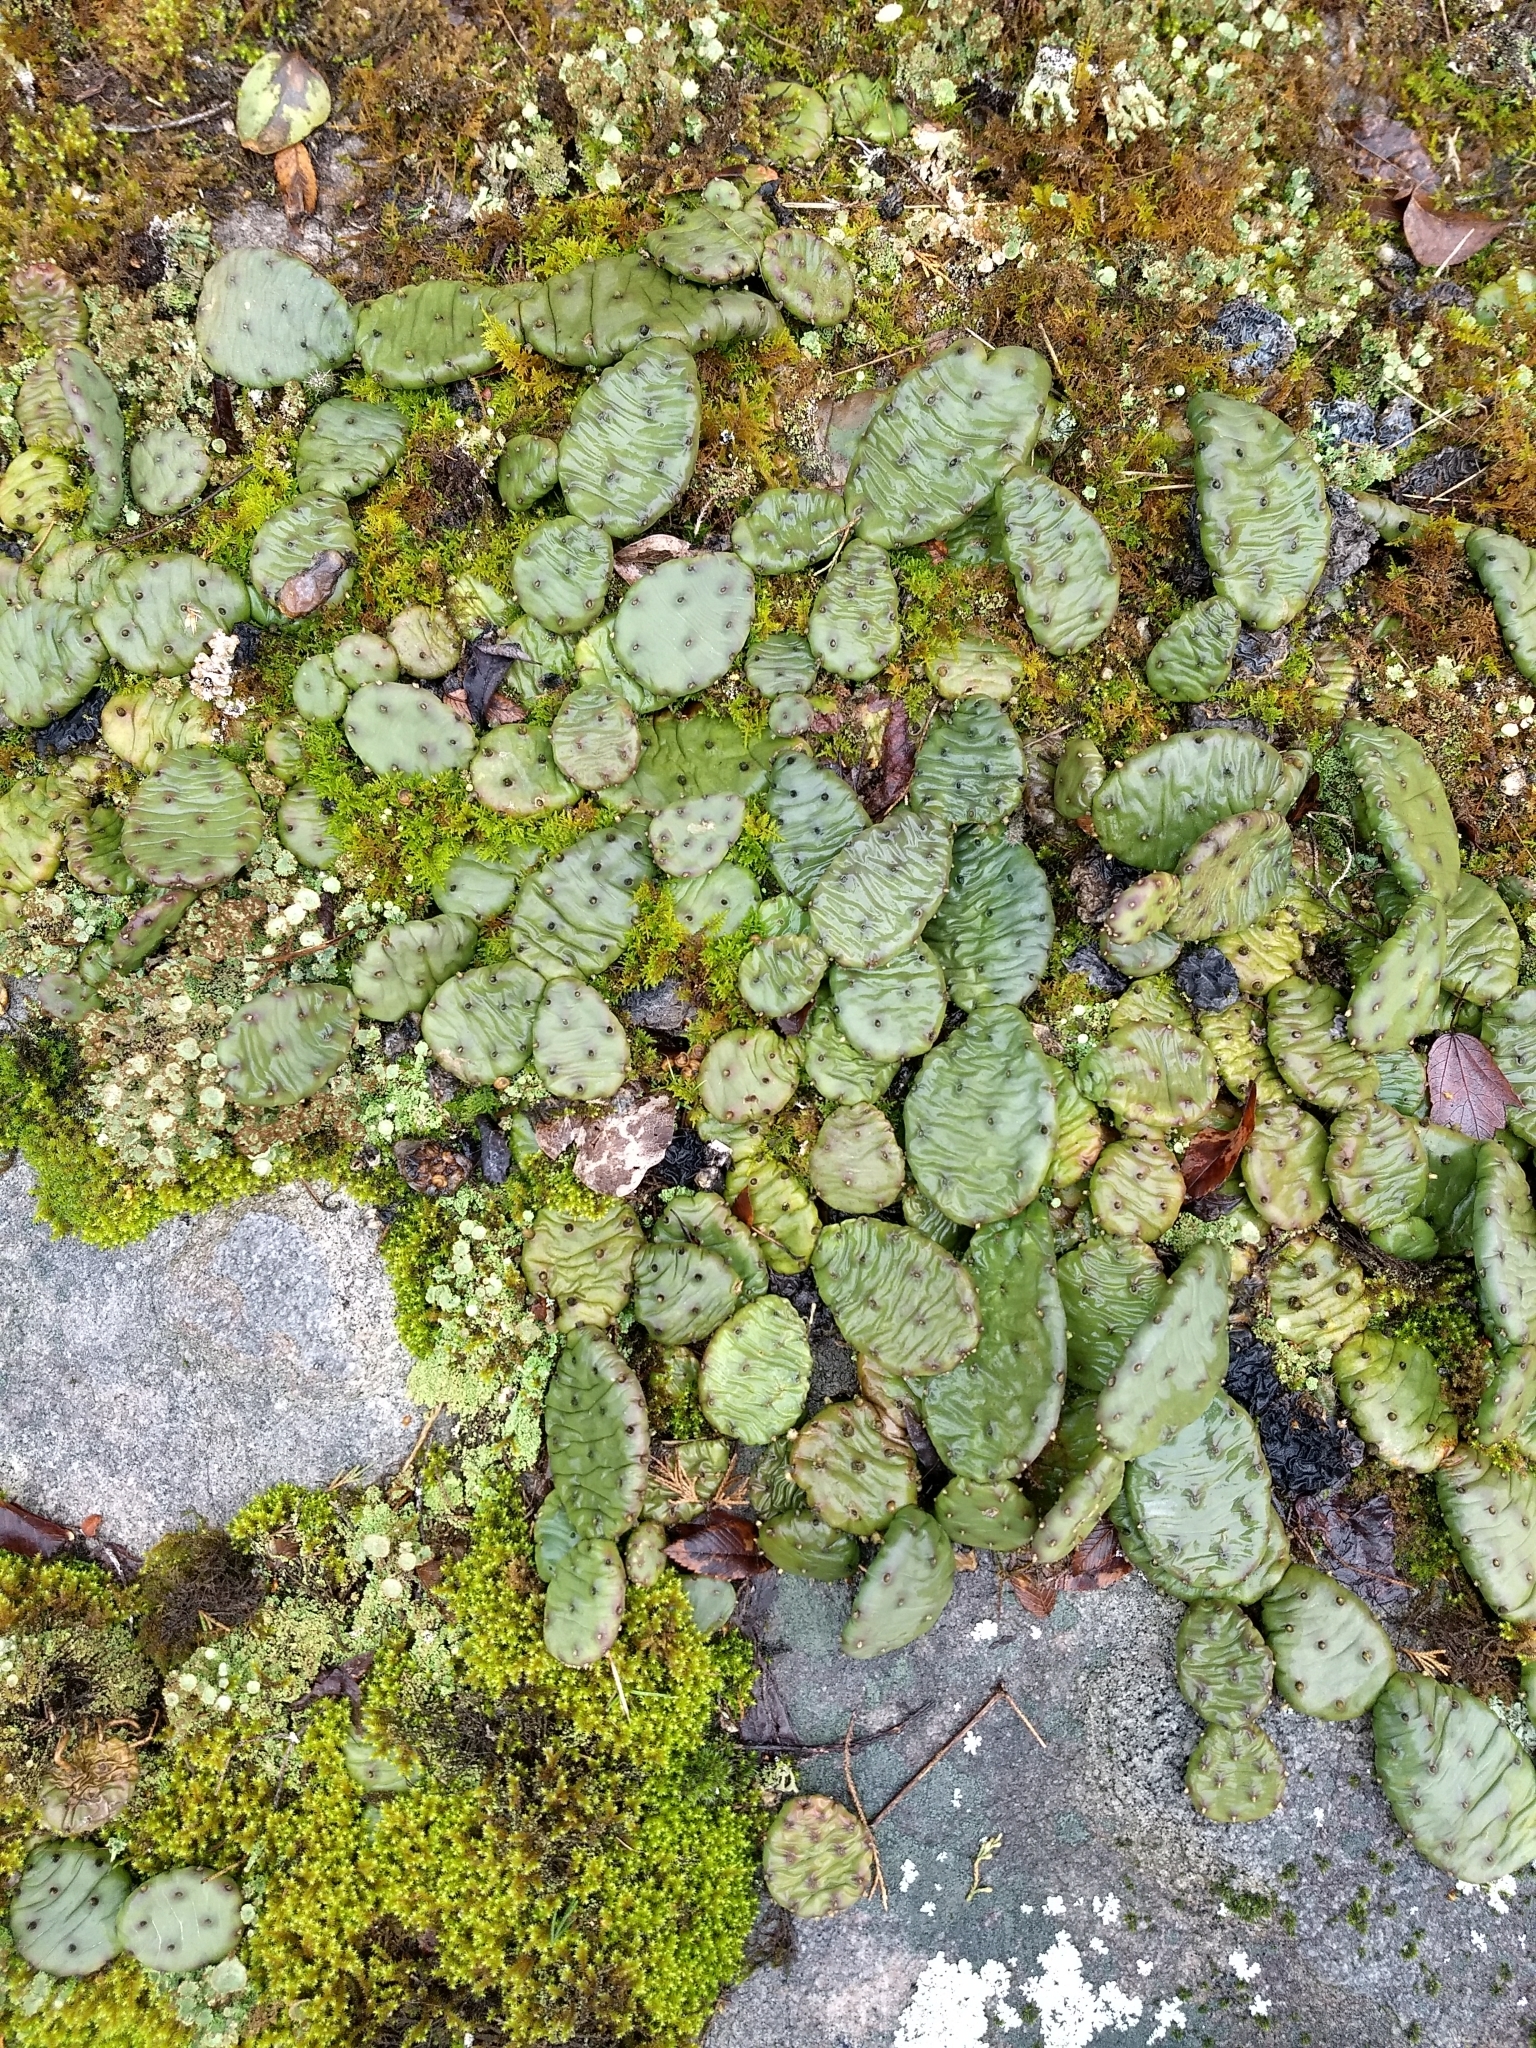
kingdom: Plantae
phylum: Tracheophyta
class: Magnoliopsida
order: Caryophyllales
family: Cactaceae
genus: Opuntia
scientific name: Opuntia mesacantha
